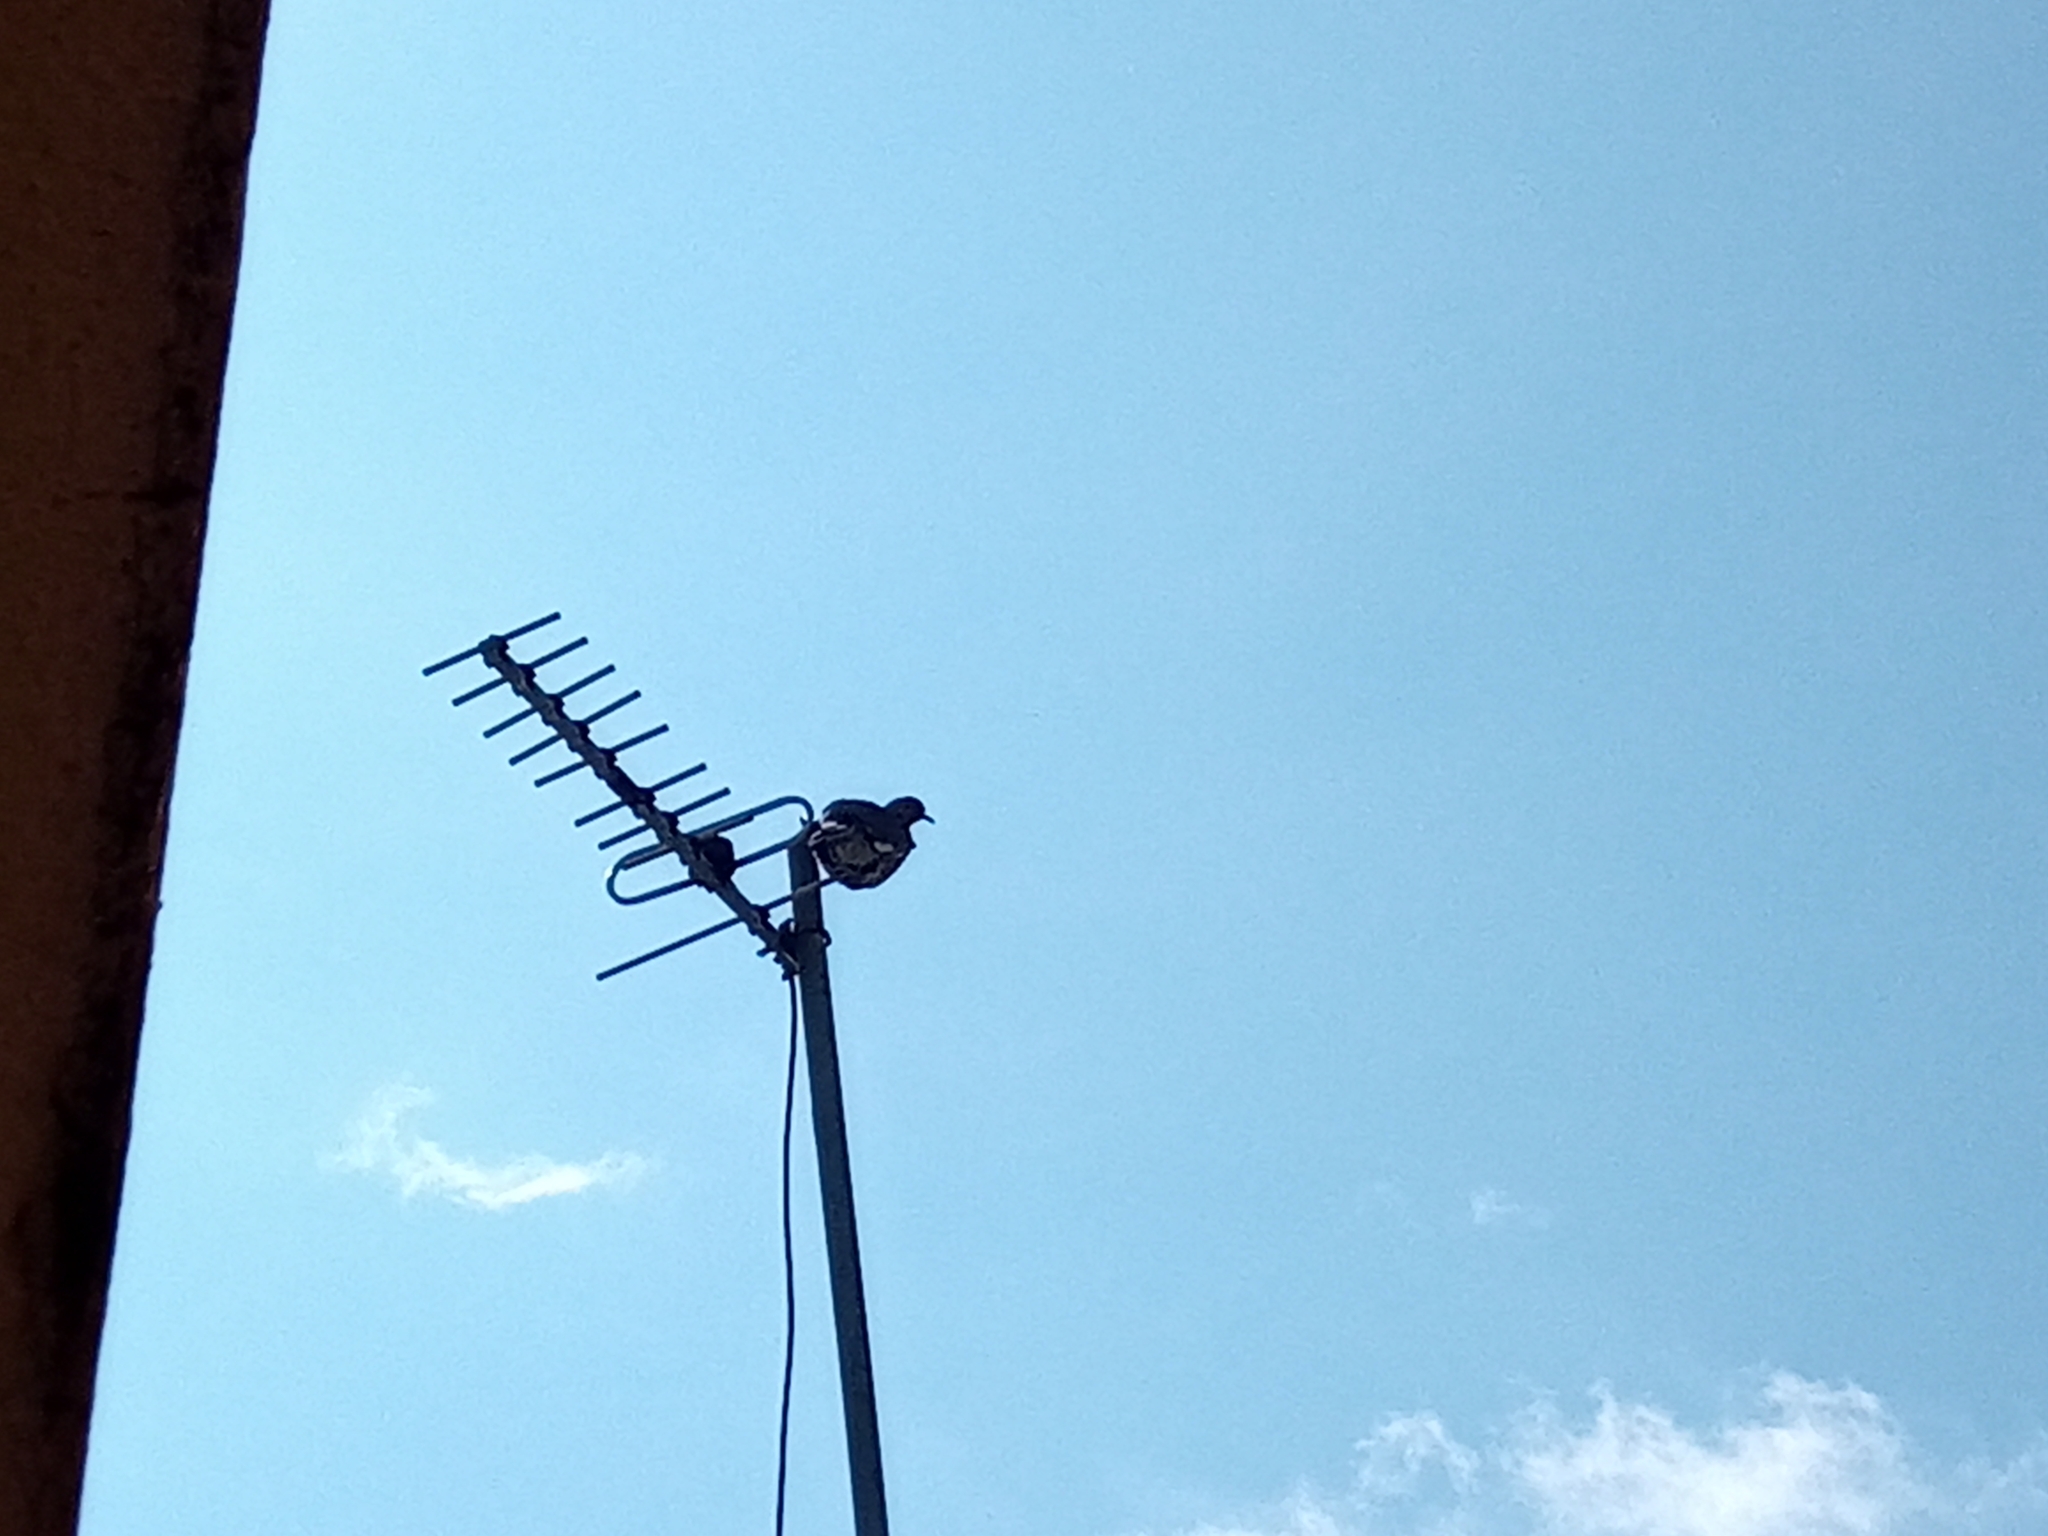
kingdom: Animalia
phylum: Chordata
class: Aves
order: Columbiformes
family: Columbidae
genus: Zenaida
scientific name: Zenaida asiatica
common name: White-winged dove
